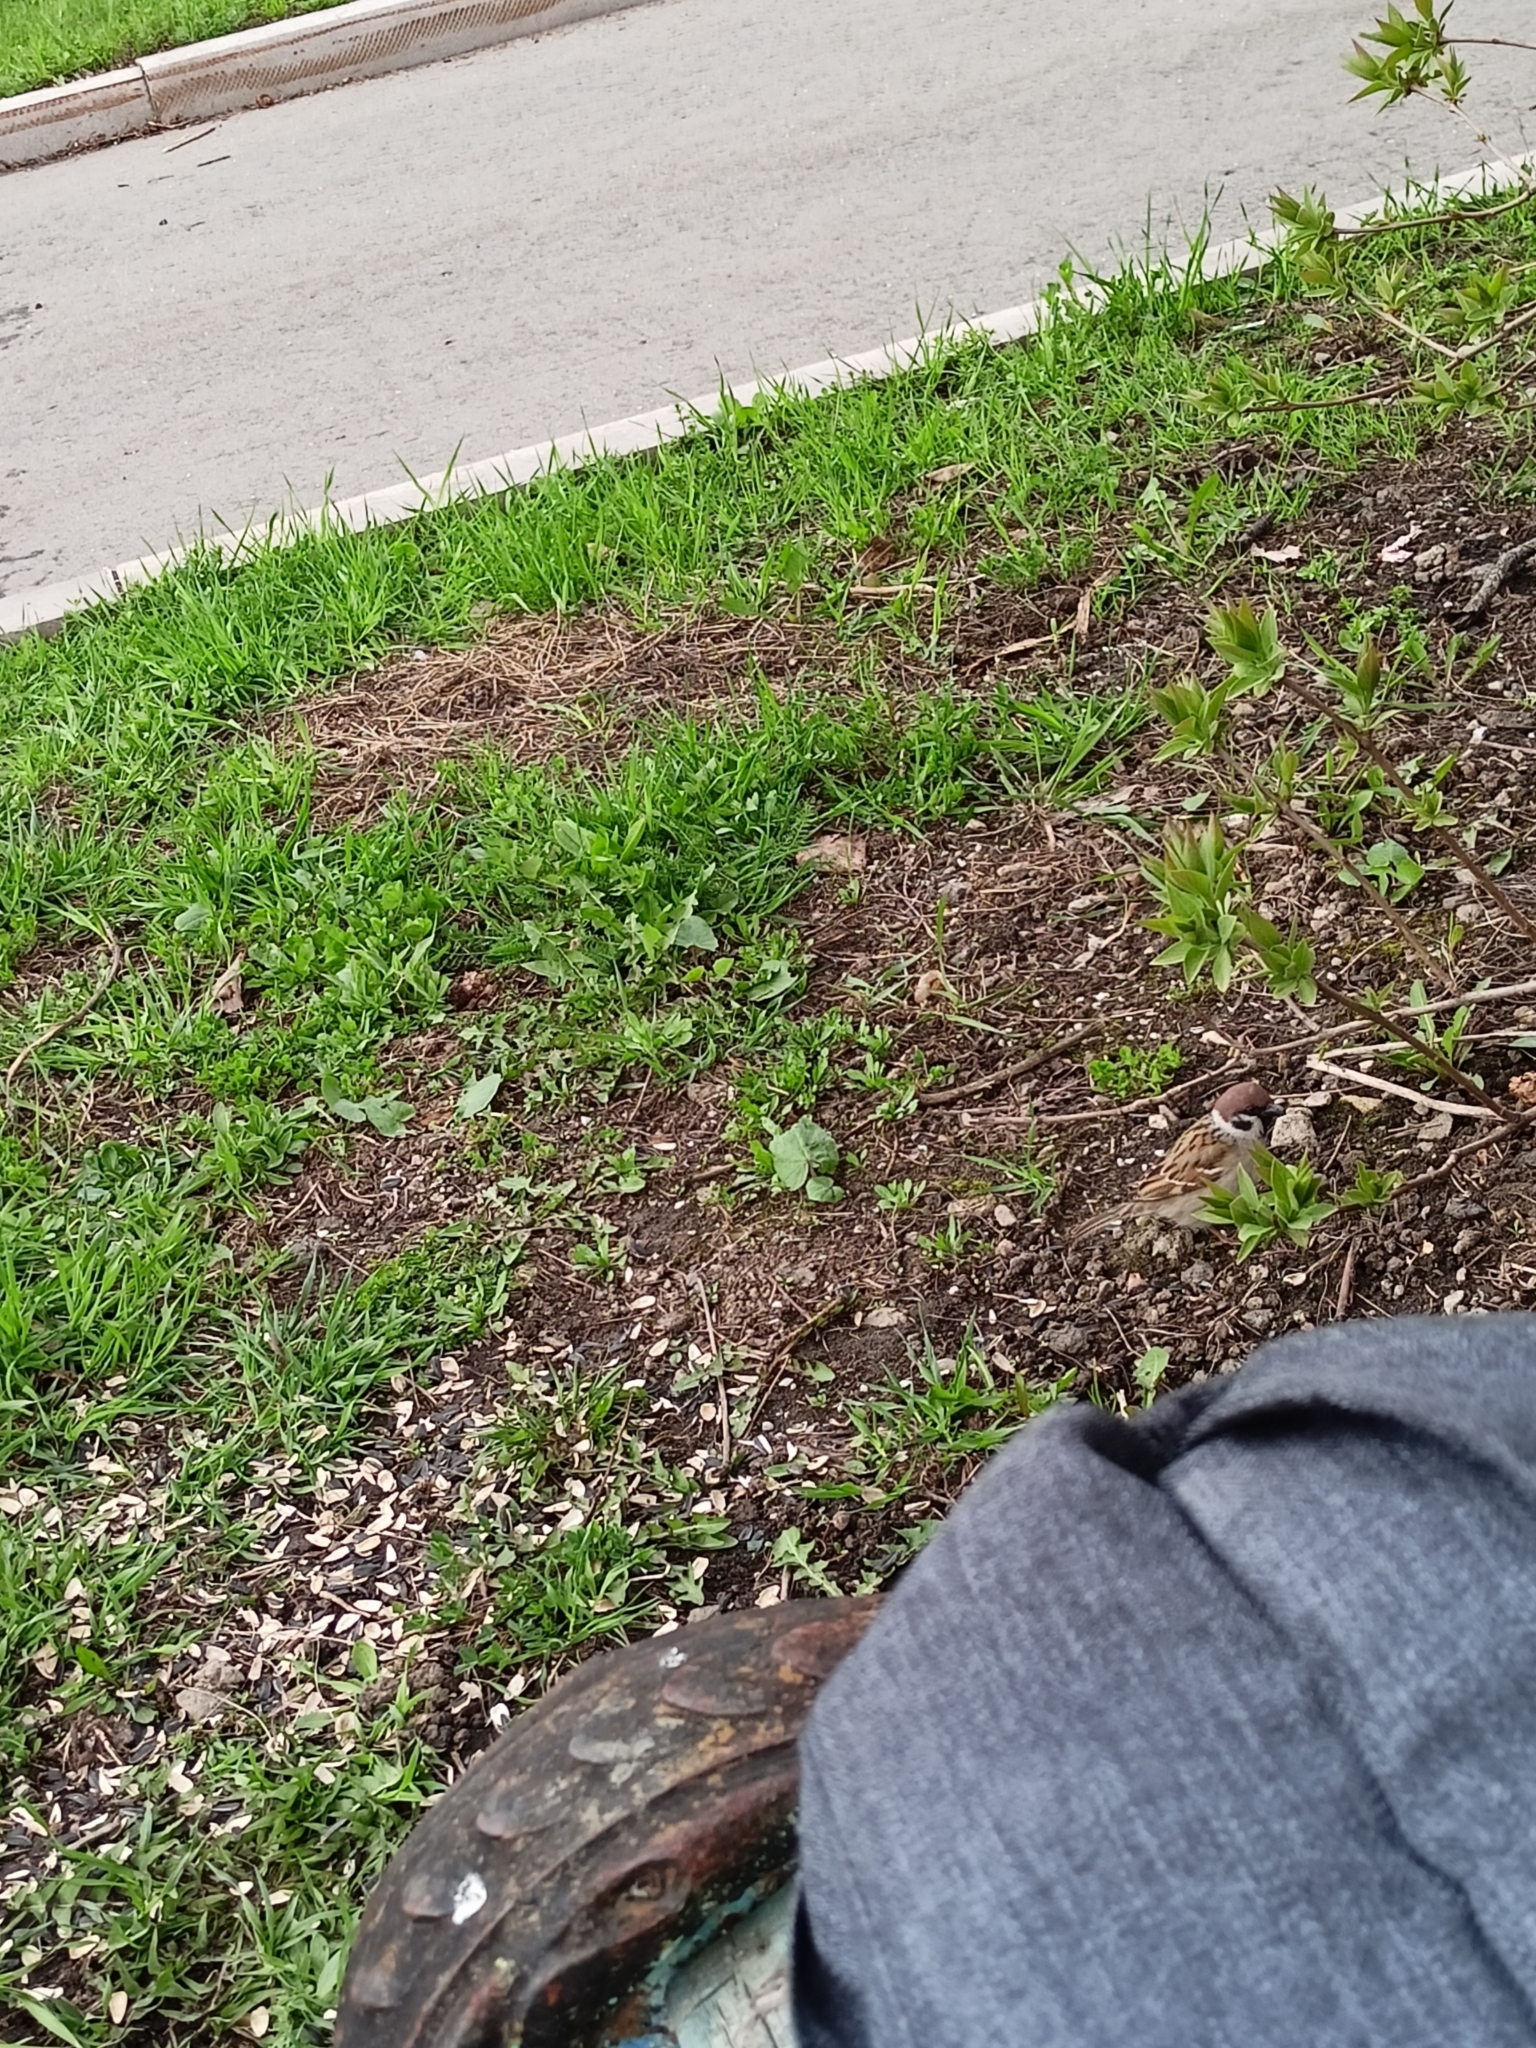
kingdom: Animalia
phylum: Chordata
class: Aves
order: Passeriformes
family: Passeridae
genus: Passer
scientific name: Passer montanus
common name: Eurasian tree sparrow
